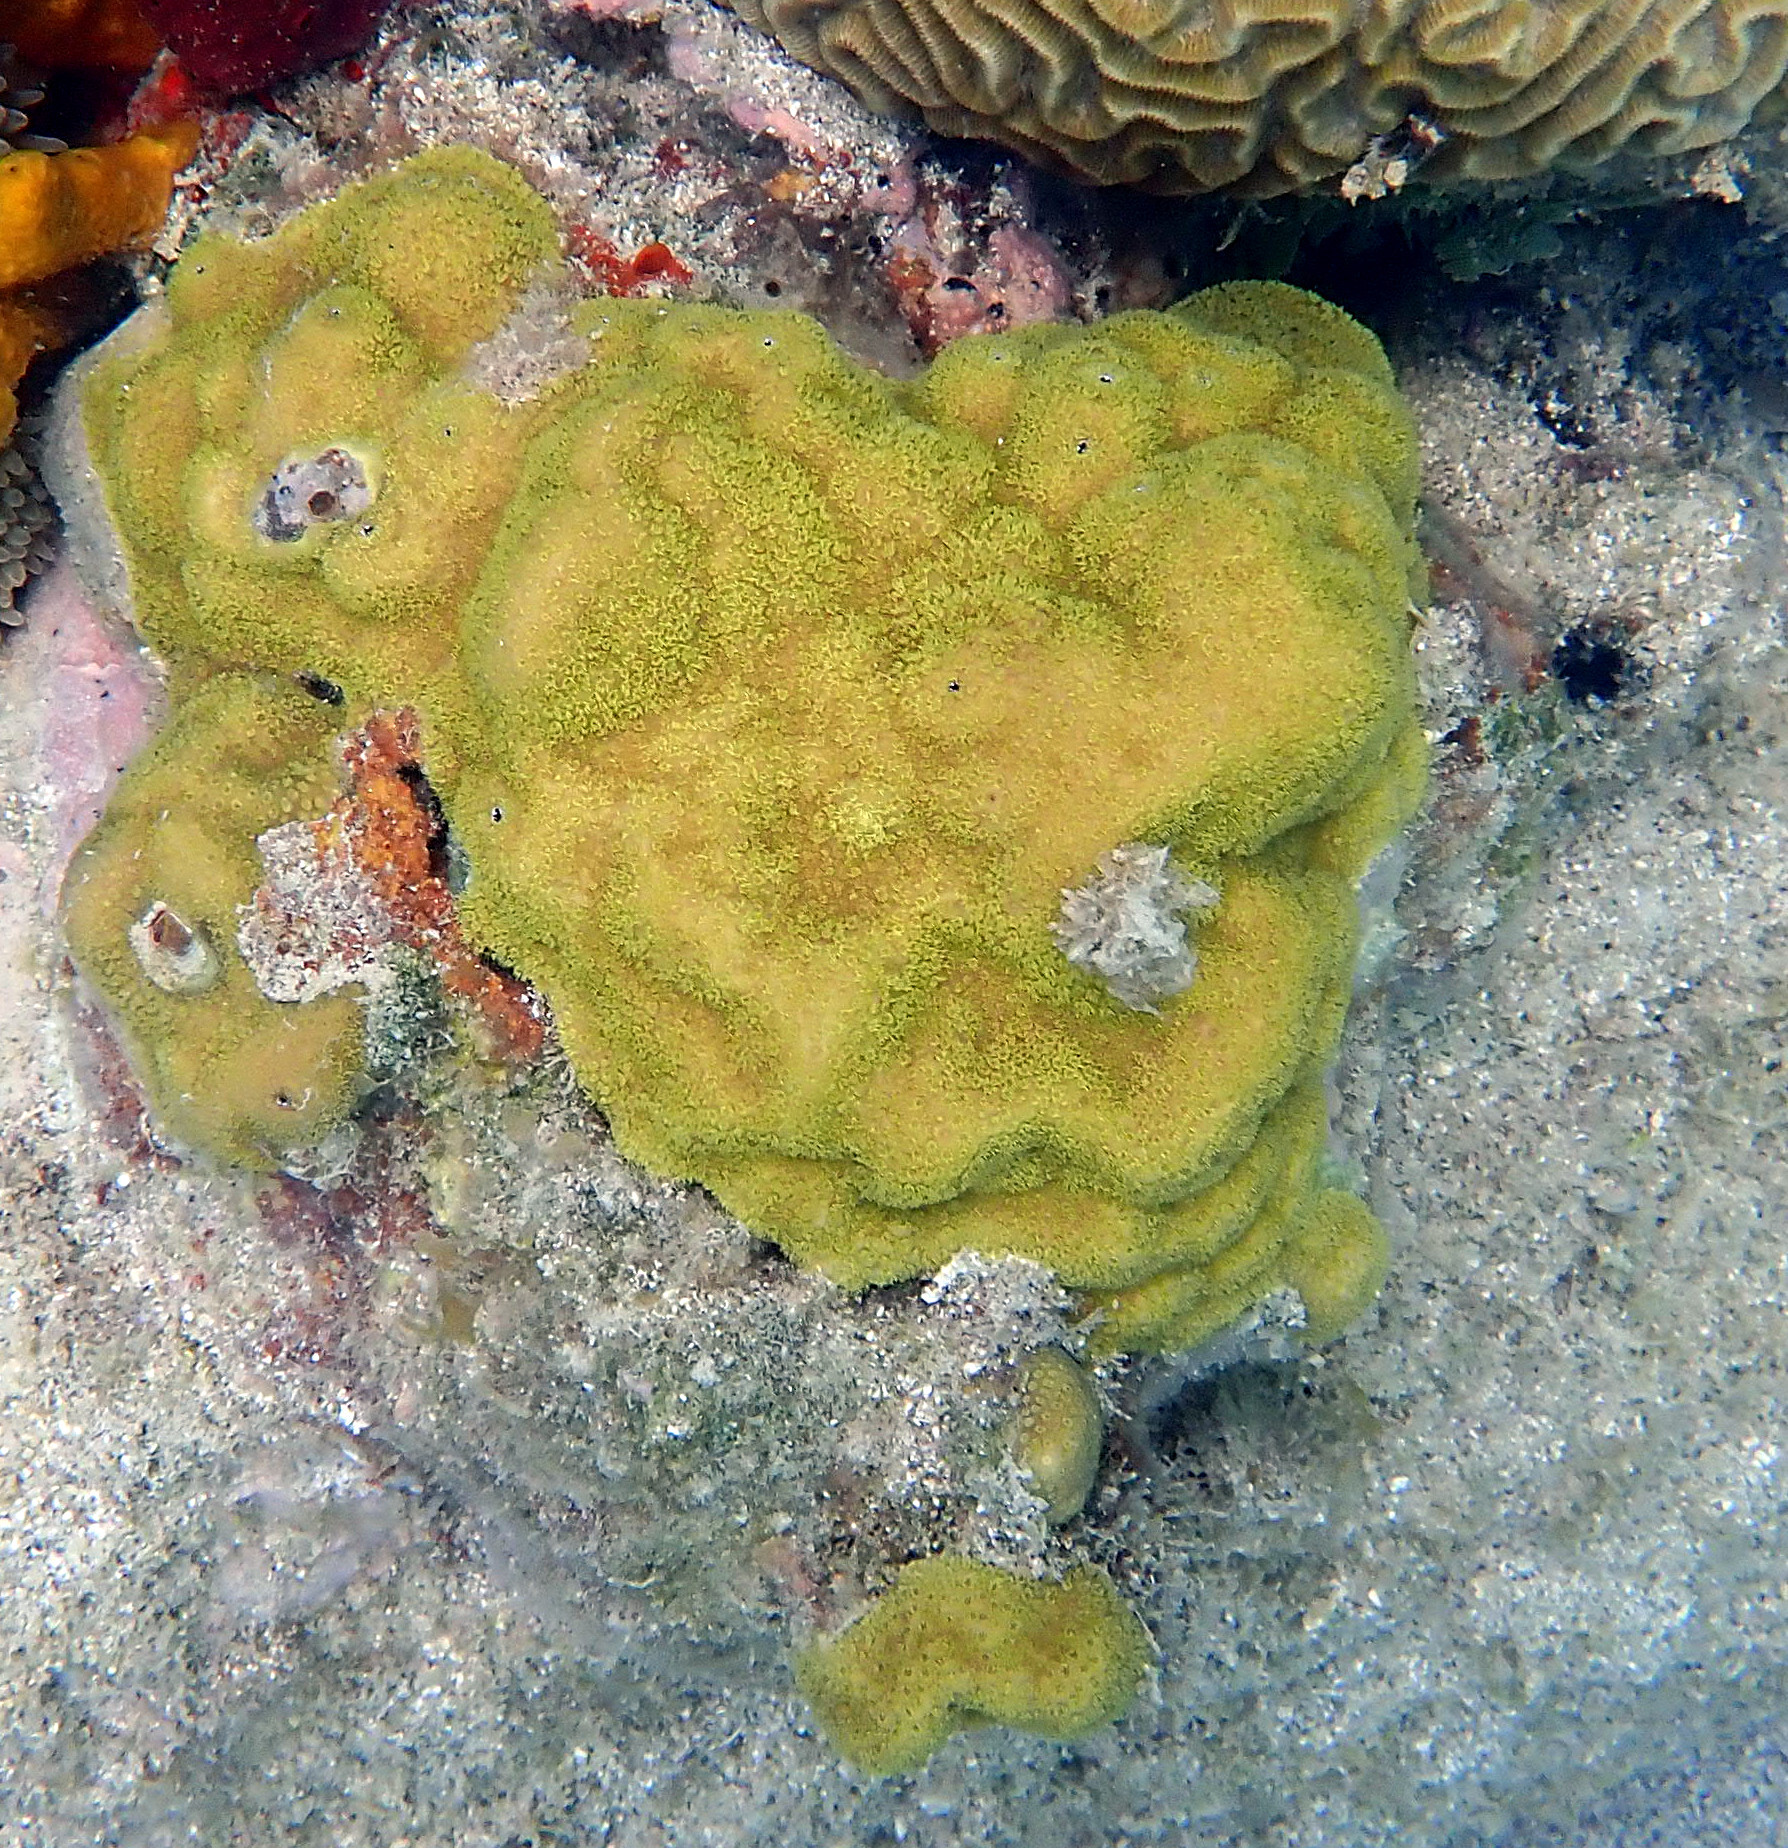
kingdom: Animalia
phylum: Cnidaria
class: Anthozoa
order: Scleractinia
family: Poritidae
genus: Porites
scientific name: Porites astreoides
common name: Mustard hill coral
